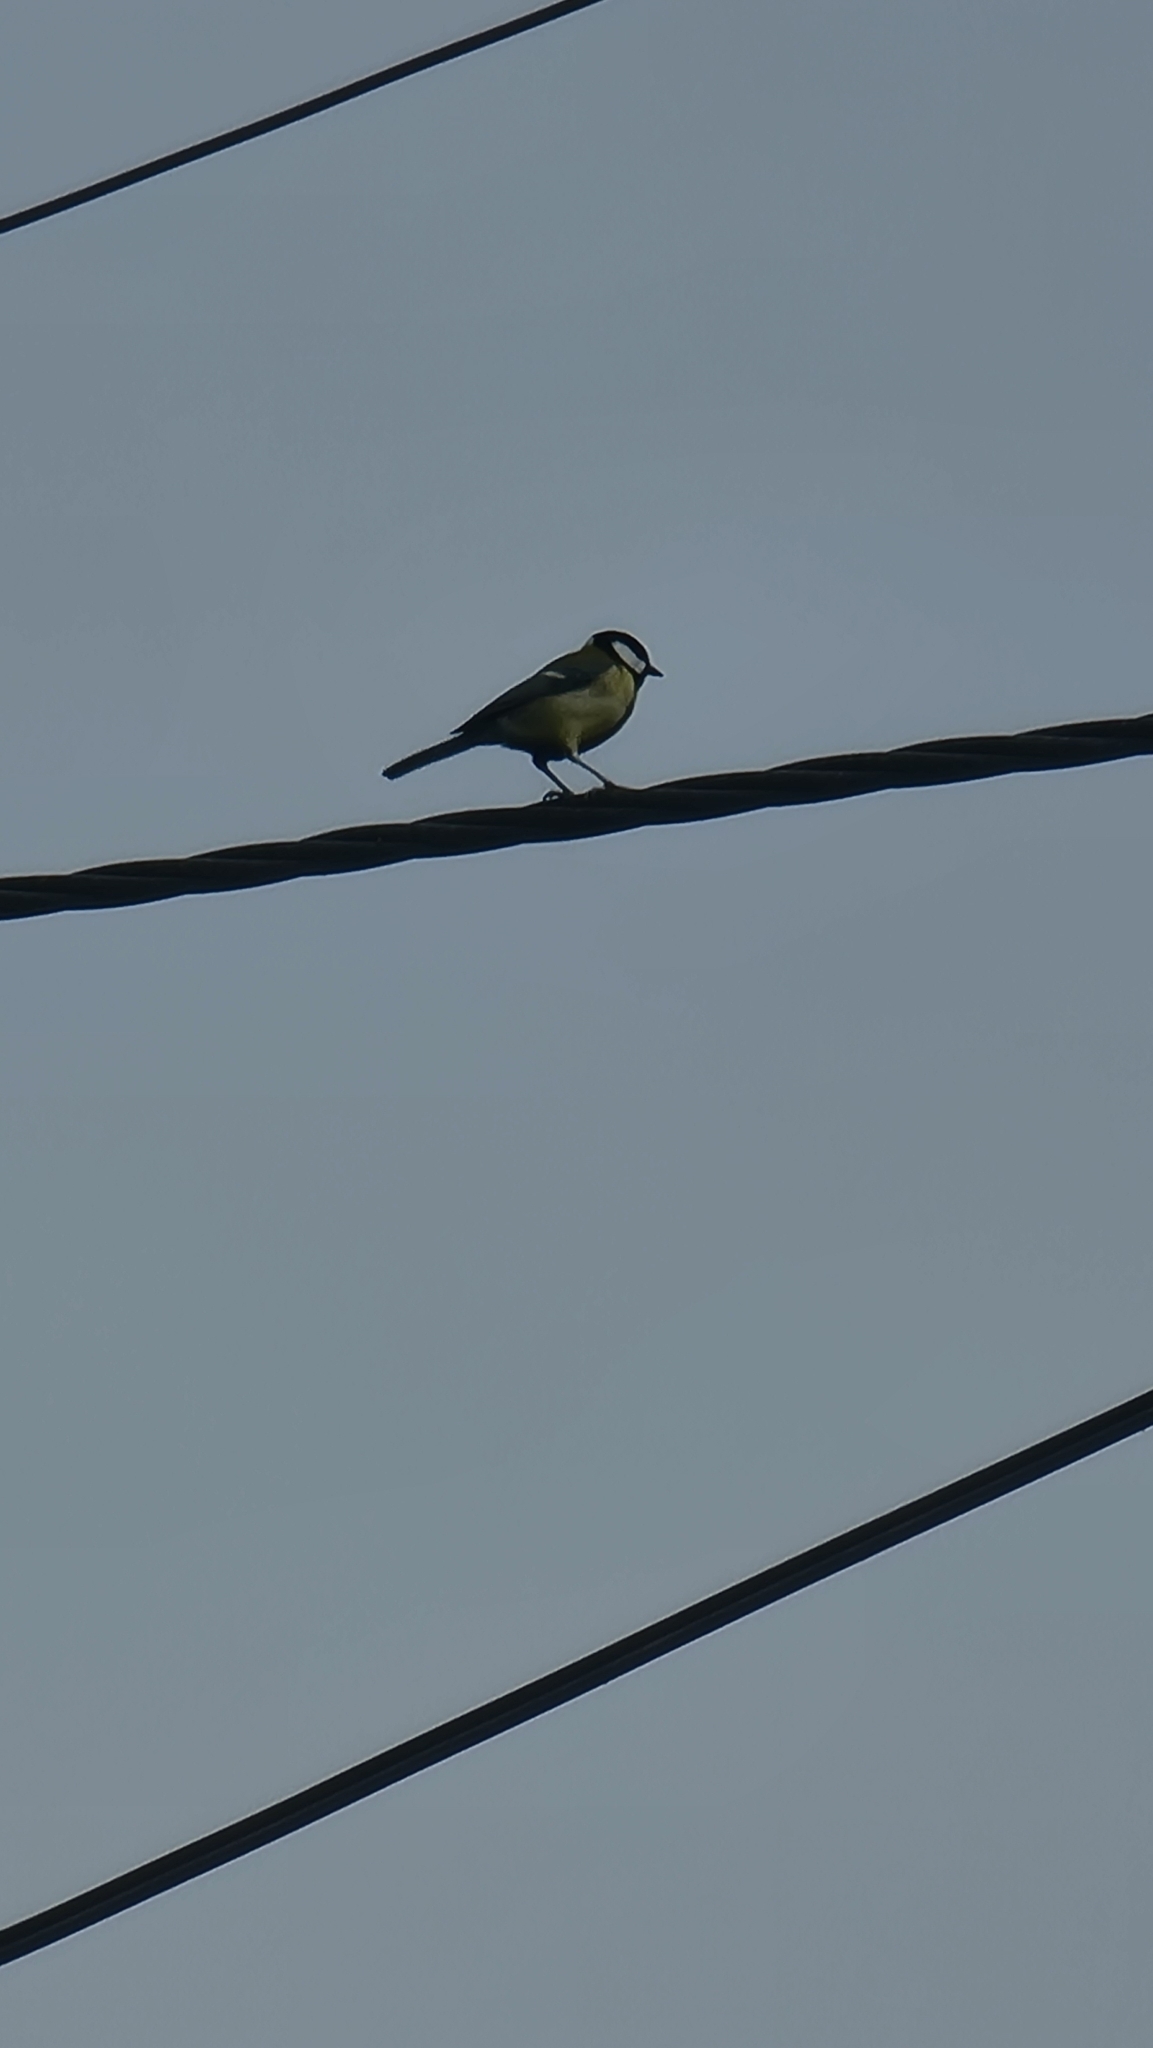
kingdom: Animalia
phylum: Chordata
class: Aves
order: Passeriformes
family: Paridae
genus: Parus
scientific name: Parus major
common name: Great tit
